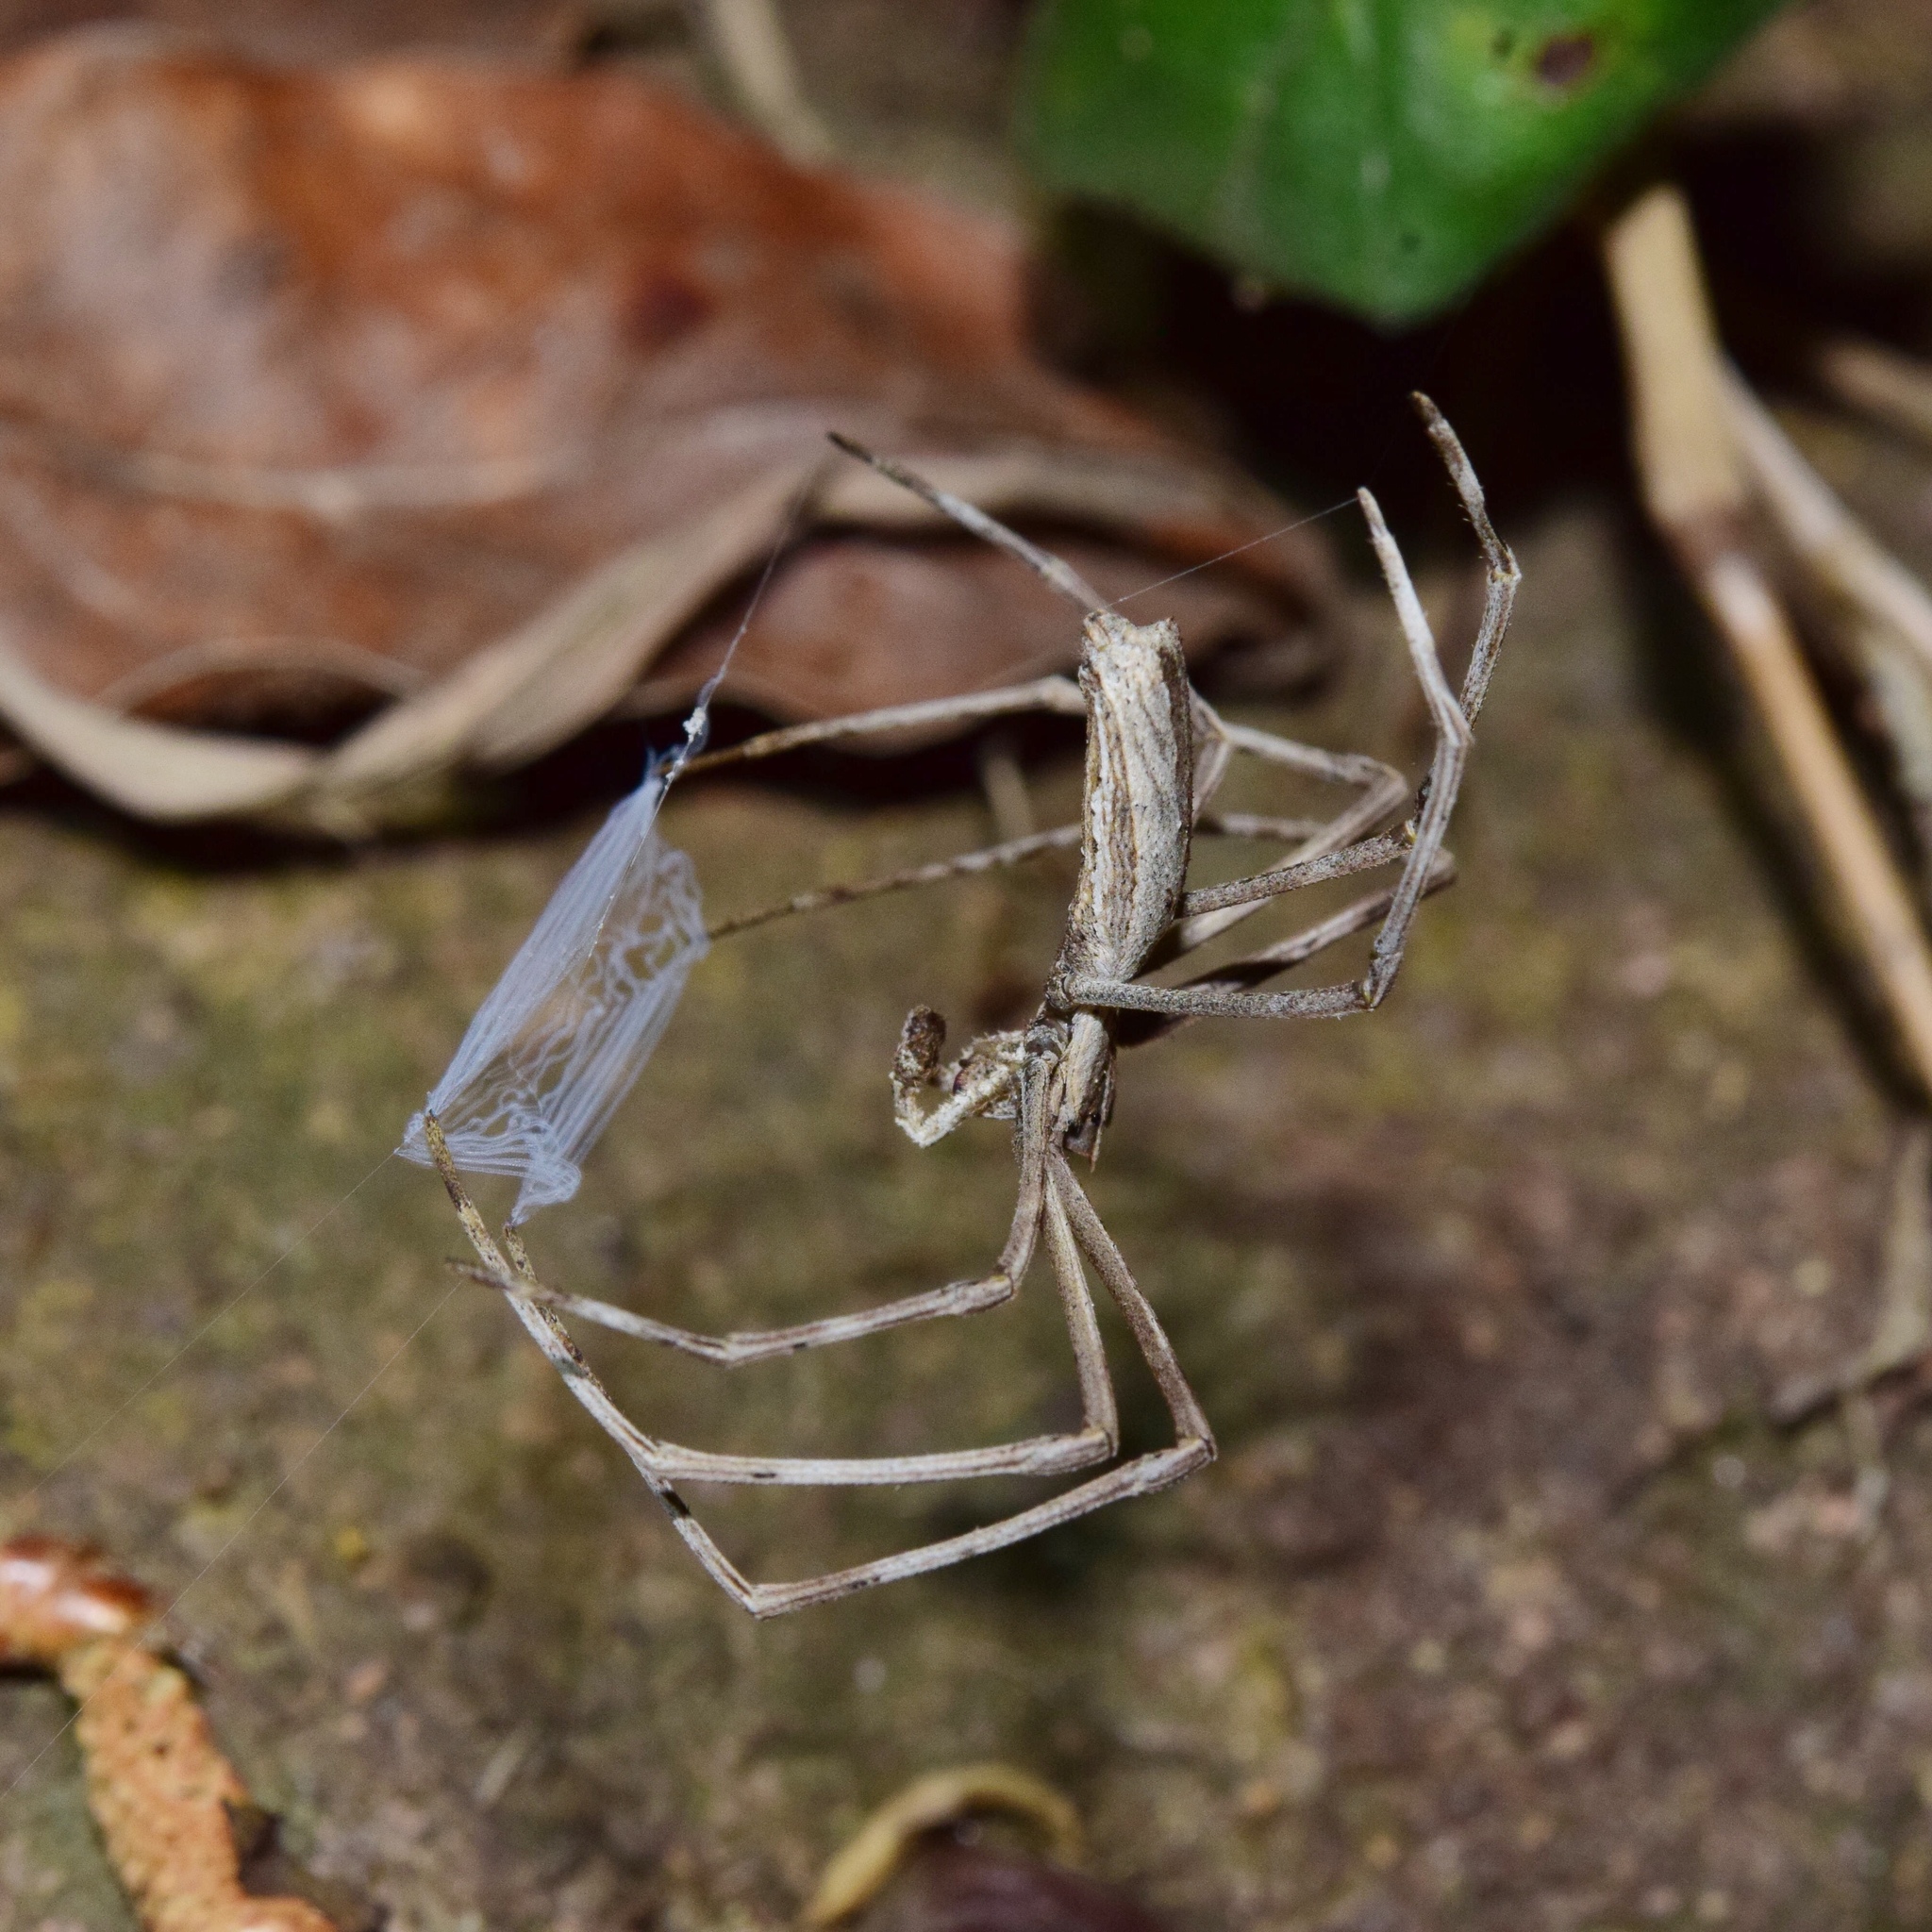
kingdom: Animalia
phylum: Arthropoda
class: Arachnida
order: Araneae
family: Deinopidae
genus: Deinopis
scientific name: Deinopis aspectans
